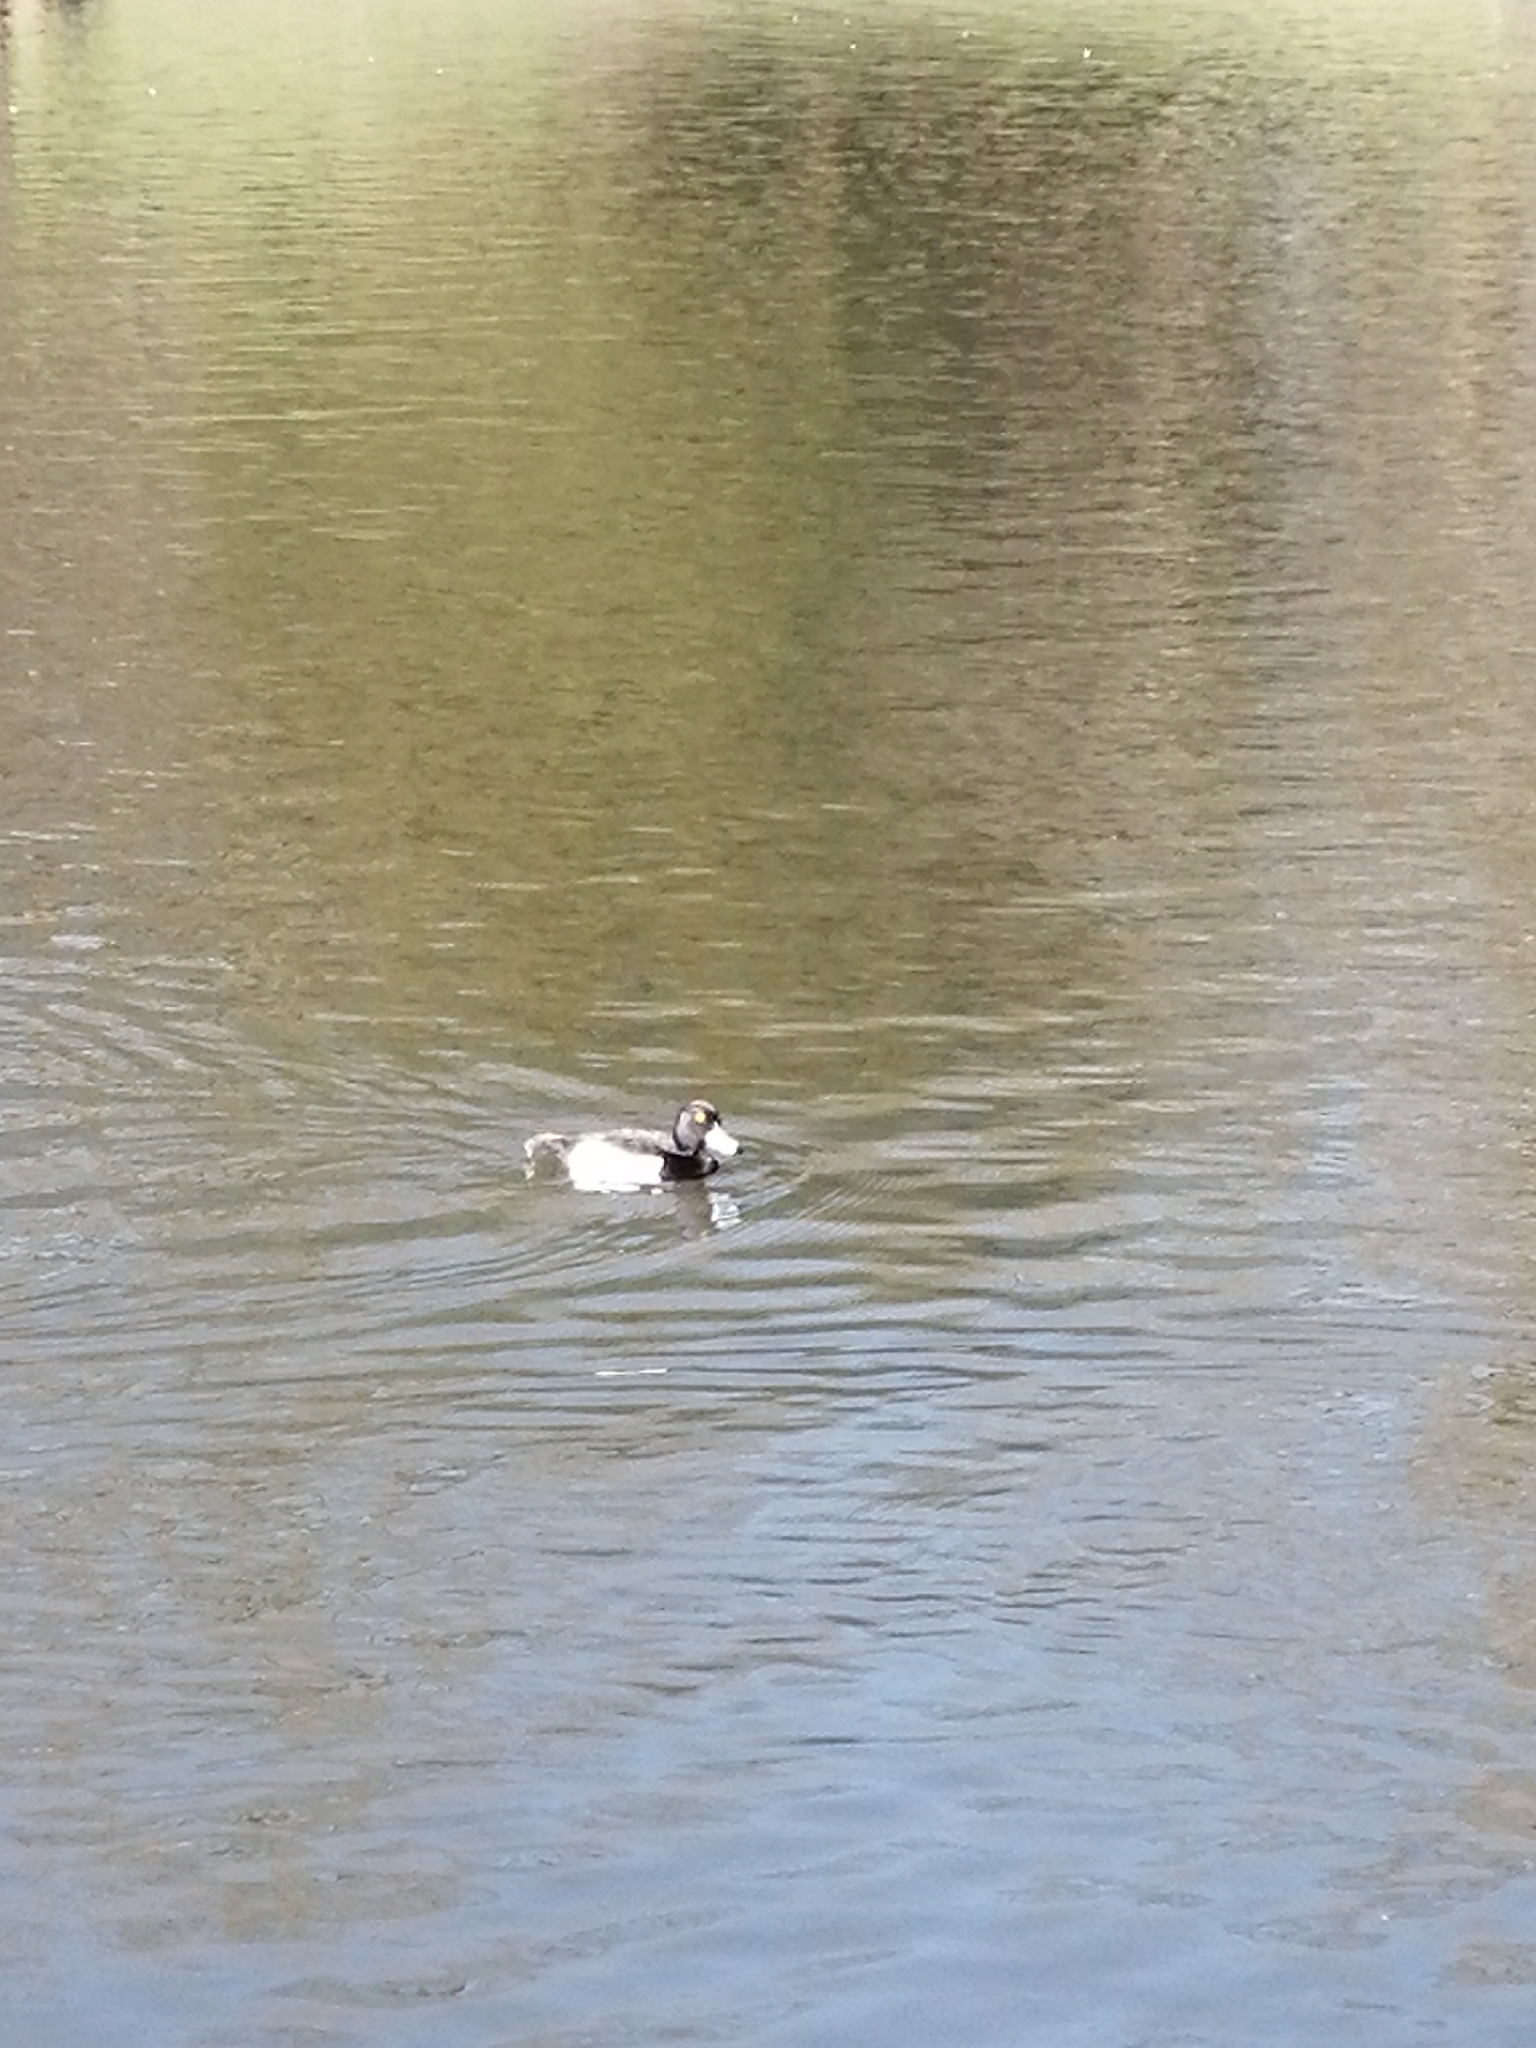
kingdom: Animalia
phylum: Chordata
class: Aves
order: Anseriformes
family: Anatidae
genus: Aythya
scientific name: Aythya fuligula
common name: Tufted duck
